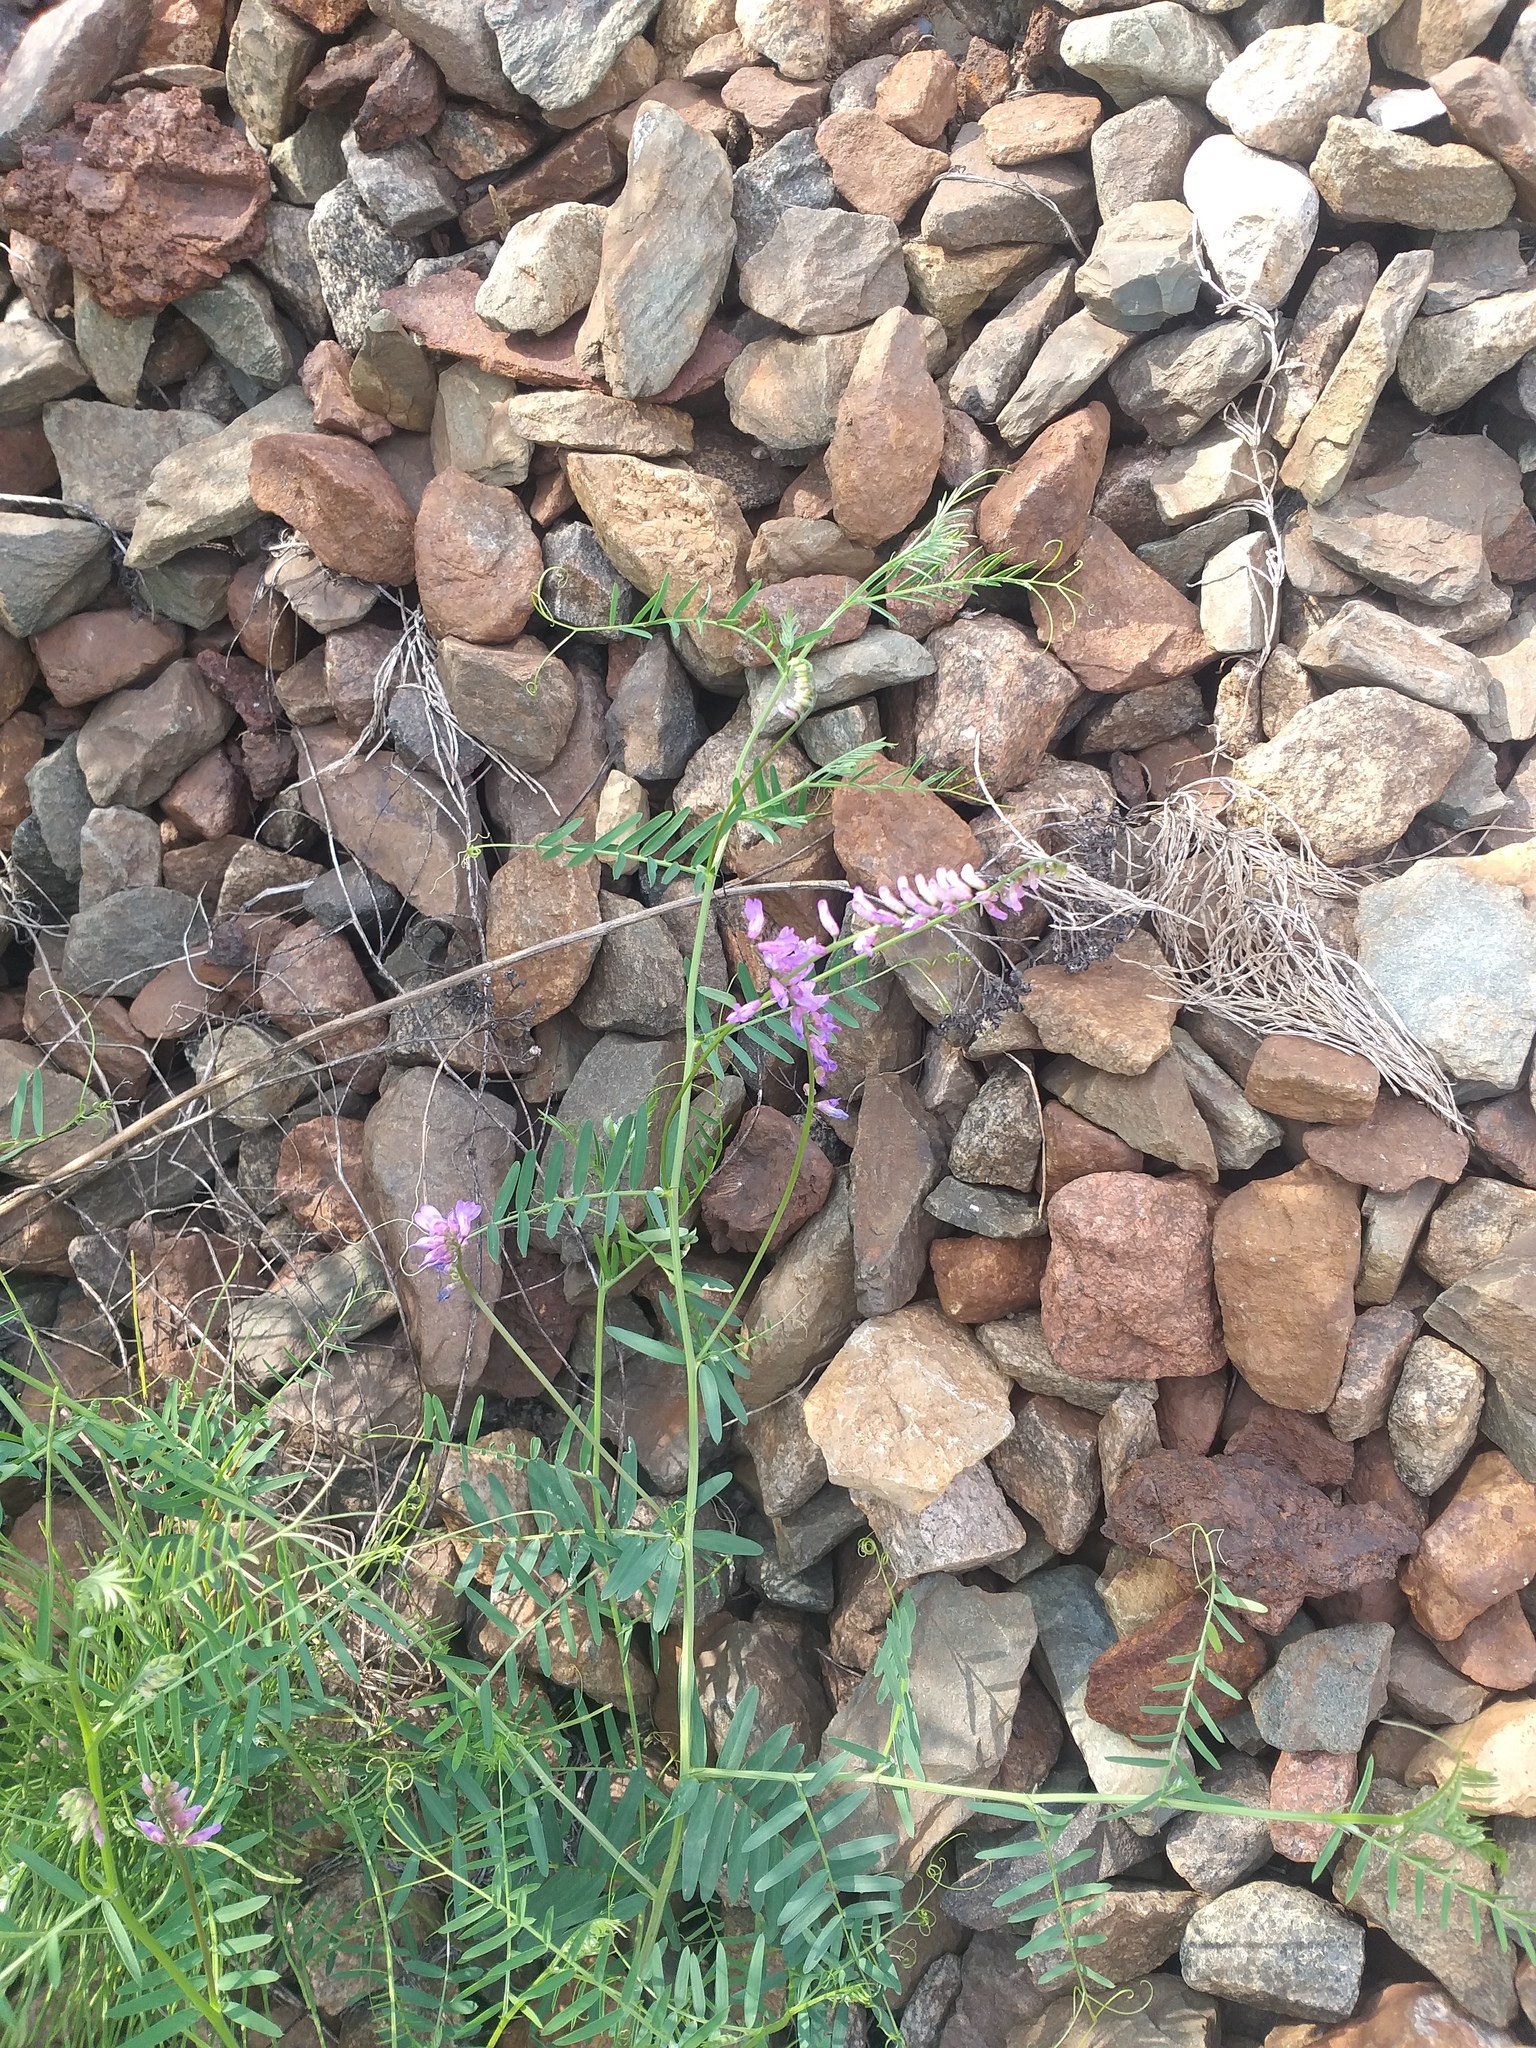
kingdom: Plantae
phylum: Tracheophyta
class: Magnoliopsida
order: Fabales
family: Fabaceae
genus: Vicia
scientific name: Vicia cracca
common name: Bird vetch
